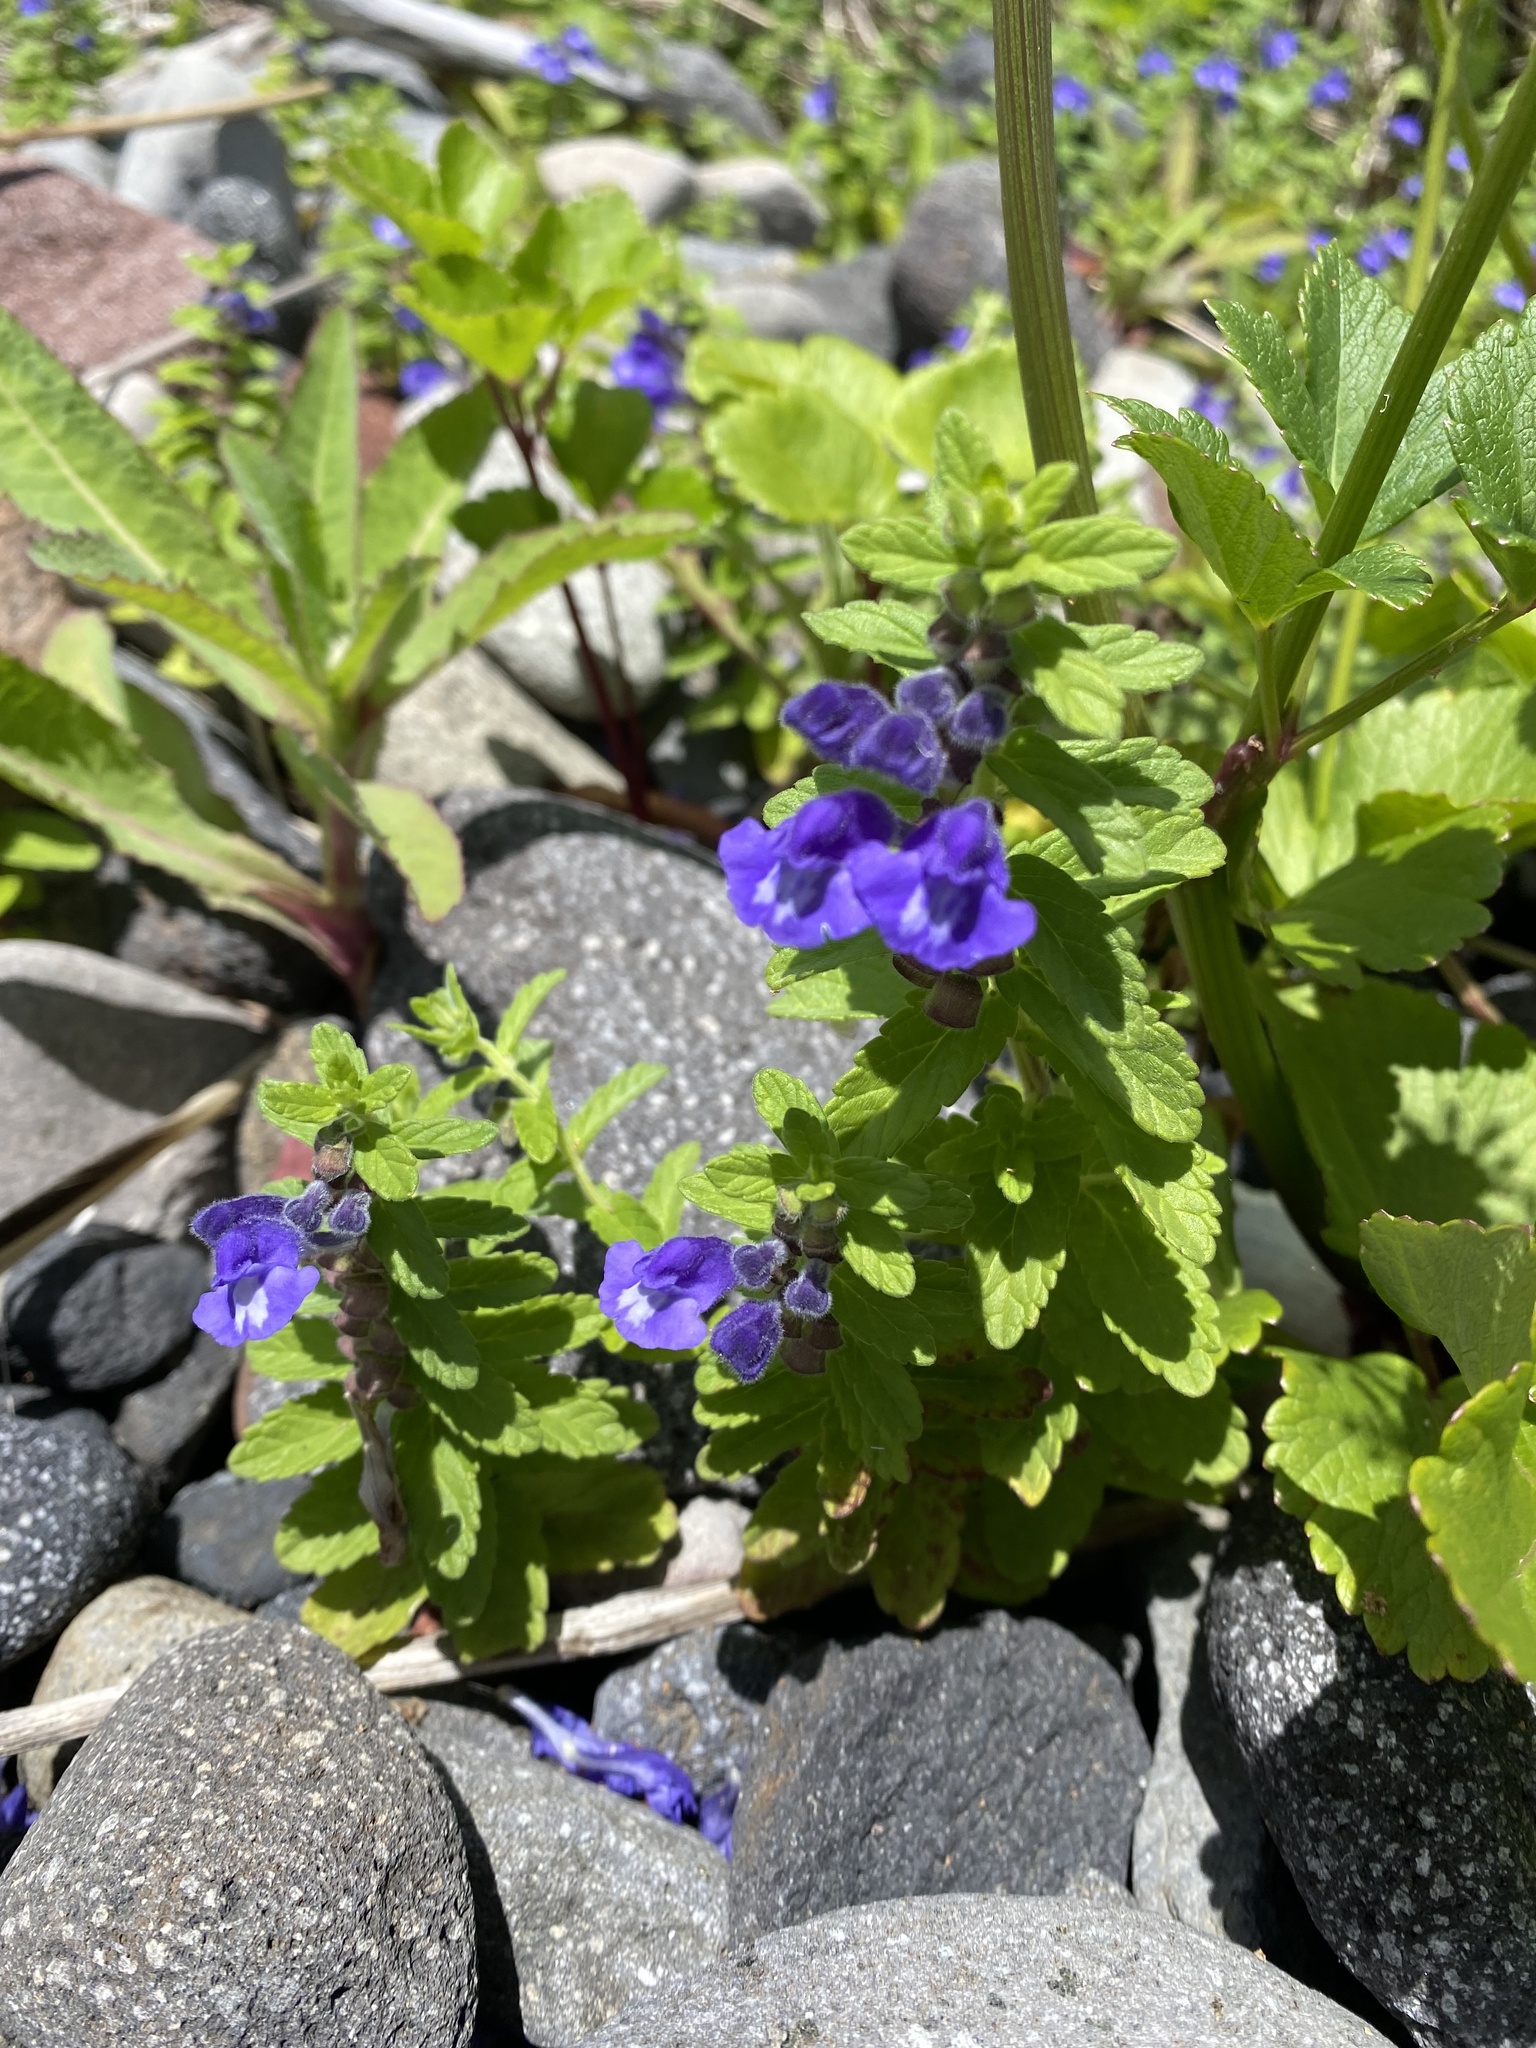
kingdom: Plantae
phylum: Tracheophyta
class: Magnoliopsida
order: Lamiales
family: Lamiaceae
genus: Scutellaria
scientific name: Scutellaria strigillosa
